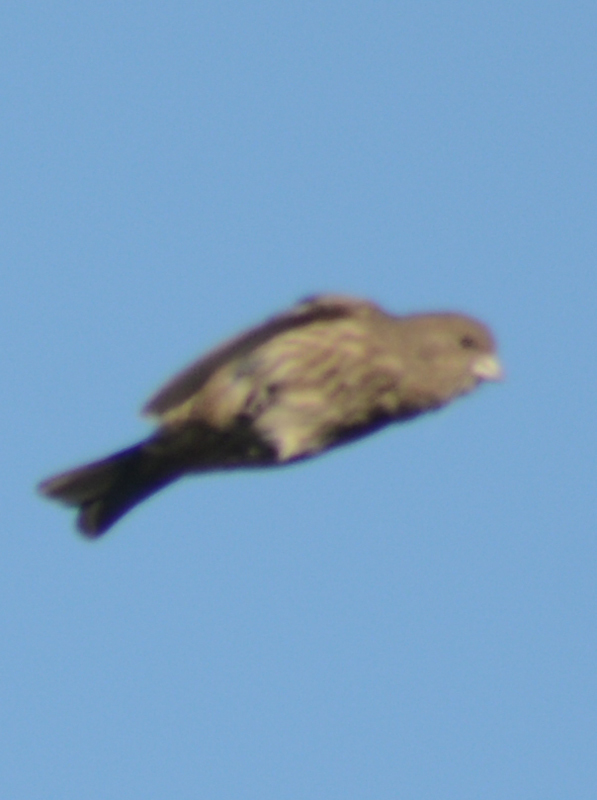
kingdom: Animalia
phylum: Chordata
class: Aves
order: Passeriformes
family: Fringillidae
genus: Haemorhous
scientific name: Haemorhous mexicanus
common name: House finch
